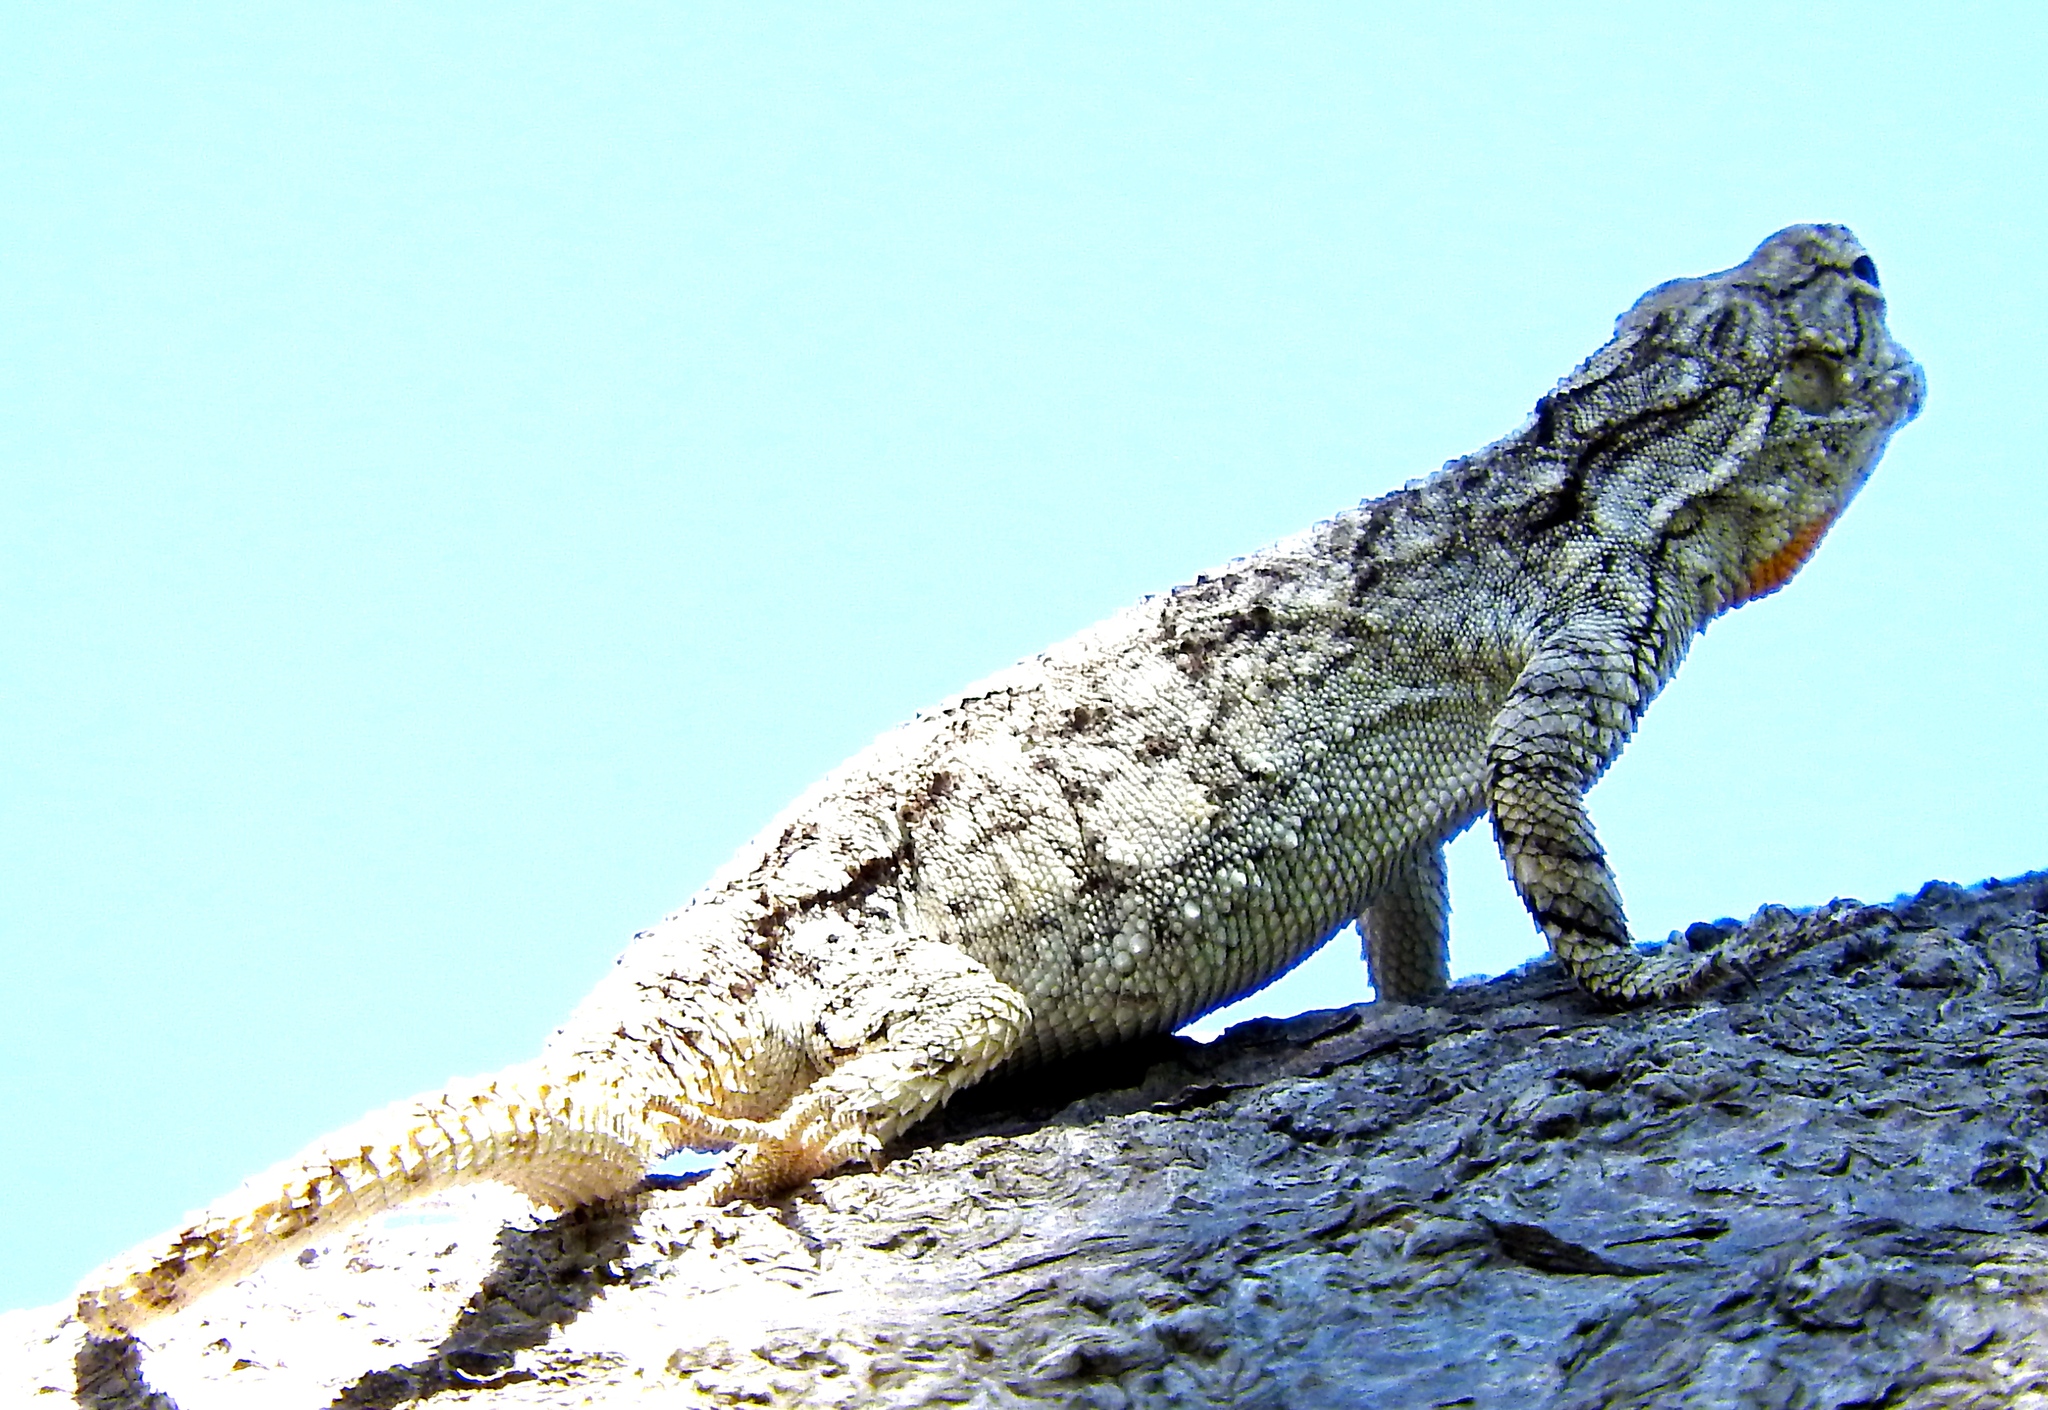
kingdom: Animalia
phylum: Chordata
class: Squamata
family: Phrynosomatidae
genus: Urosaurus
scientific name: Urosaurus bicarinatus
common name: Tropical tree lizard
